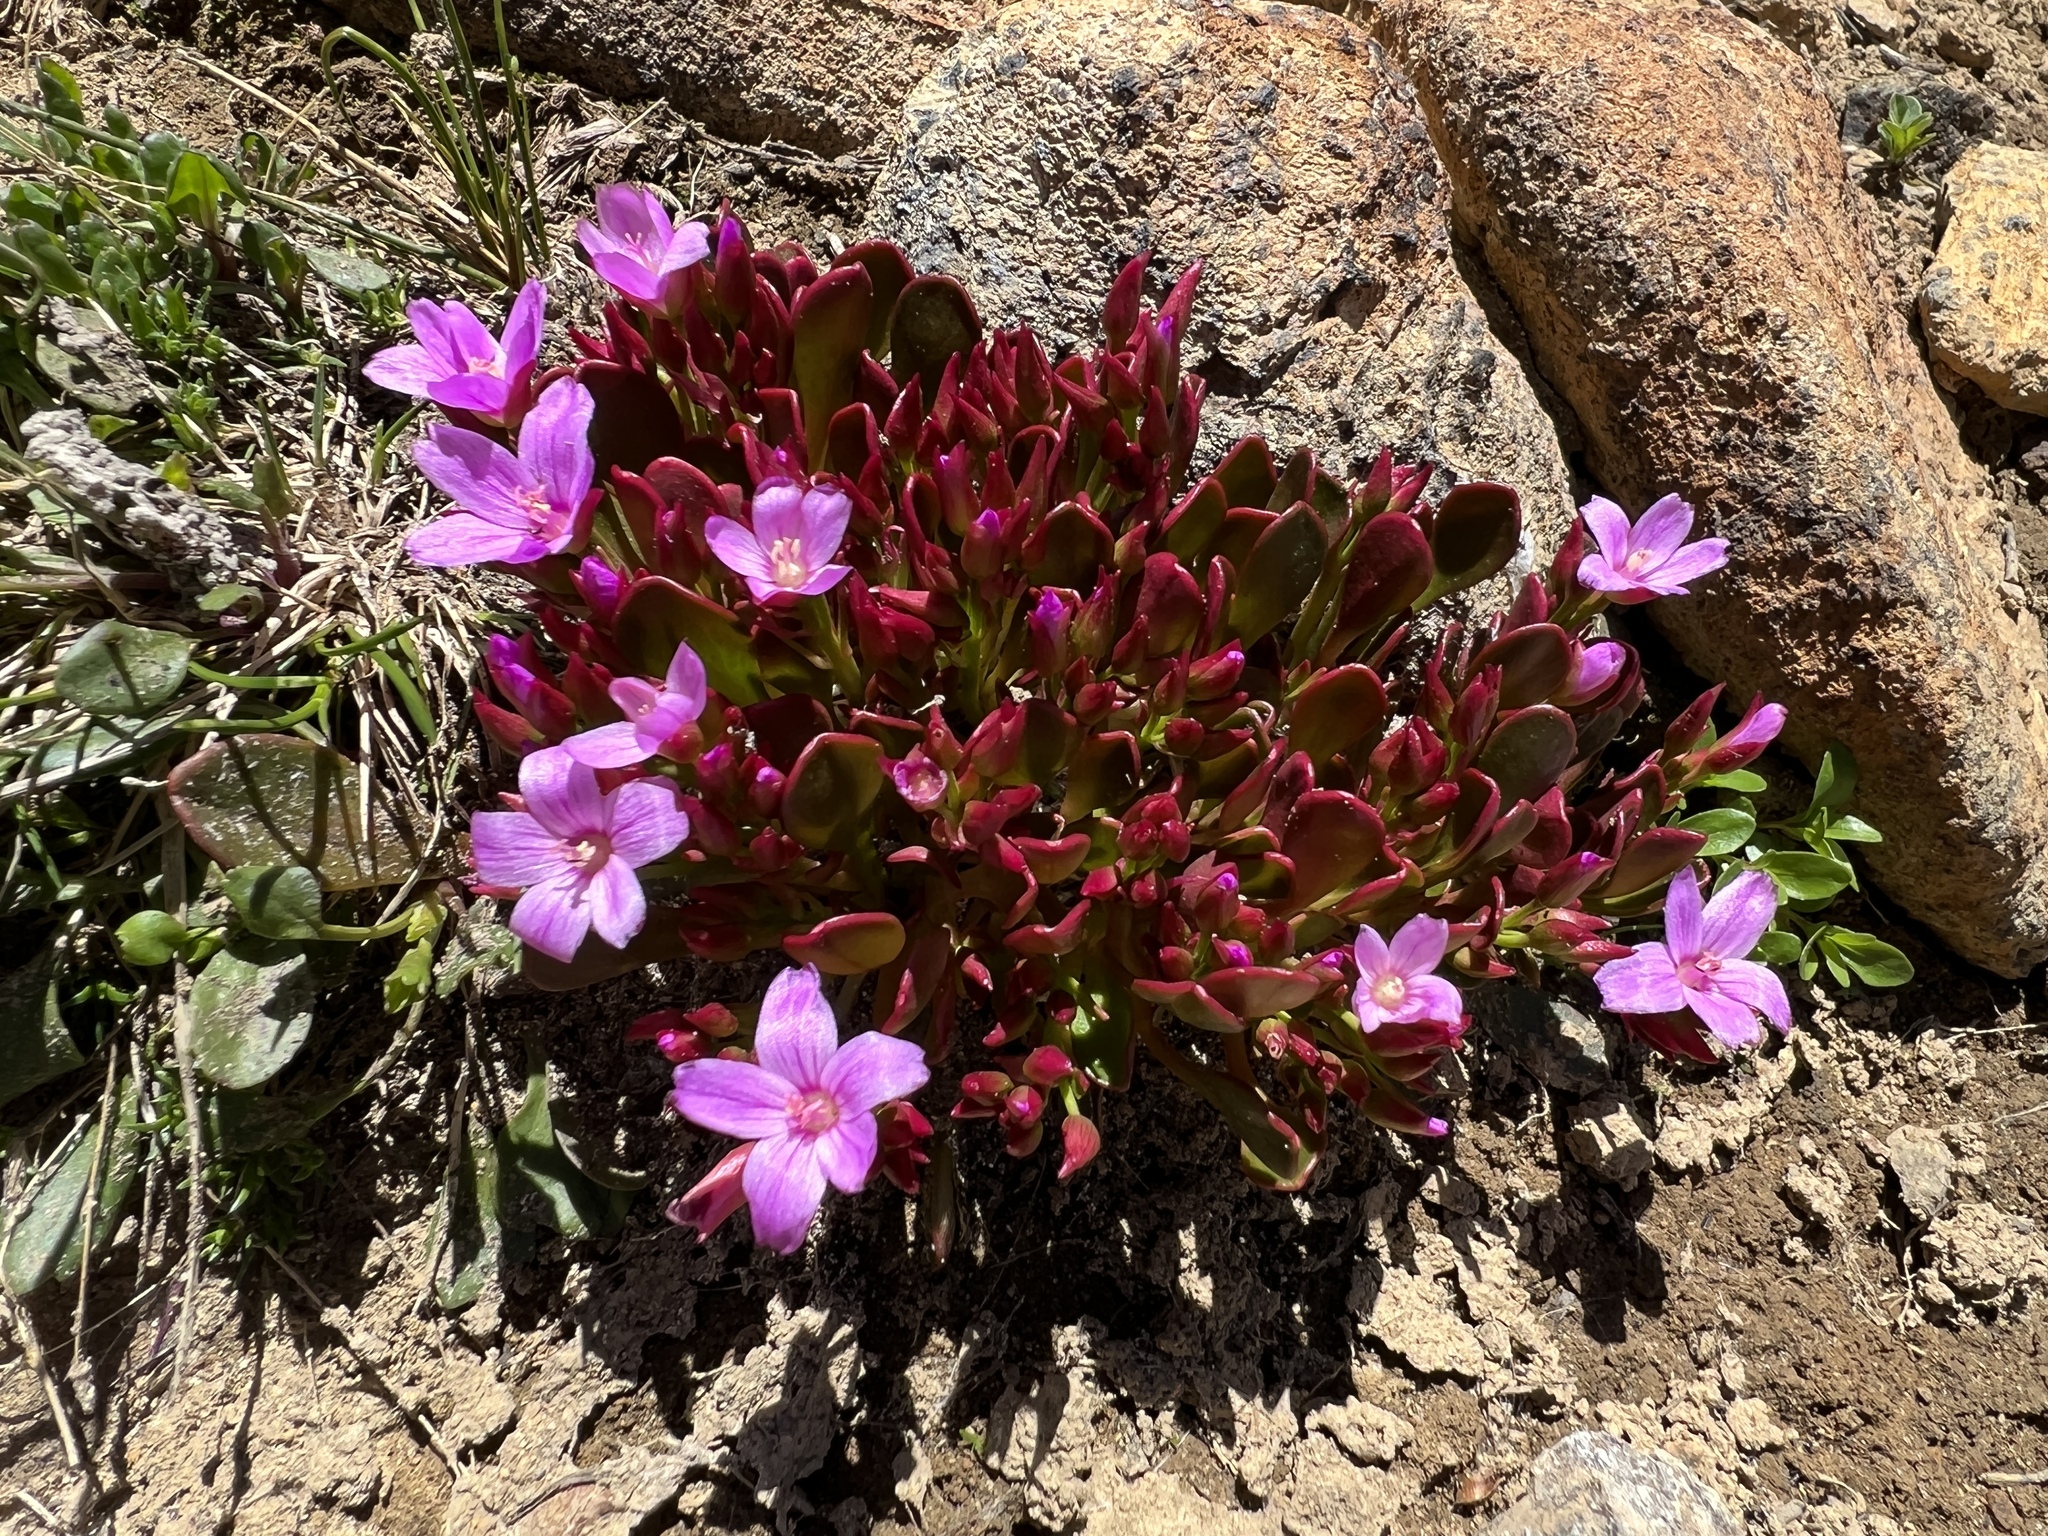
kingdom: Plantae
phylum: Tracheophyta
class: Magnoliopsida
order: Caryophyllales
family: Montiaceae
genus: Claytonia
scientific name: Claytonia megarhiza
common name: Alpine spring beauty
